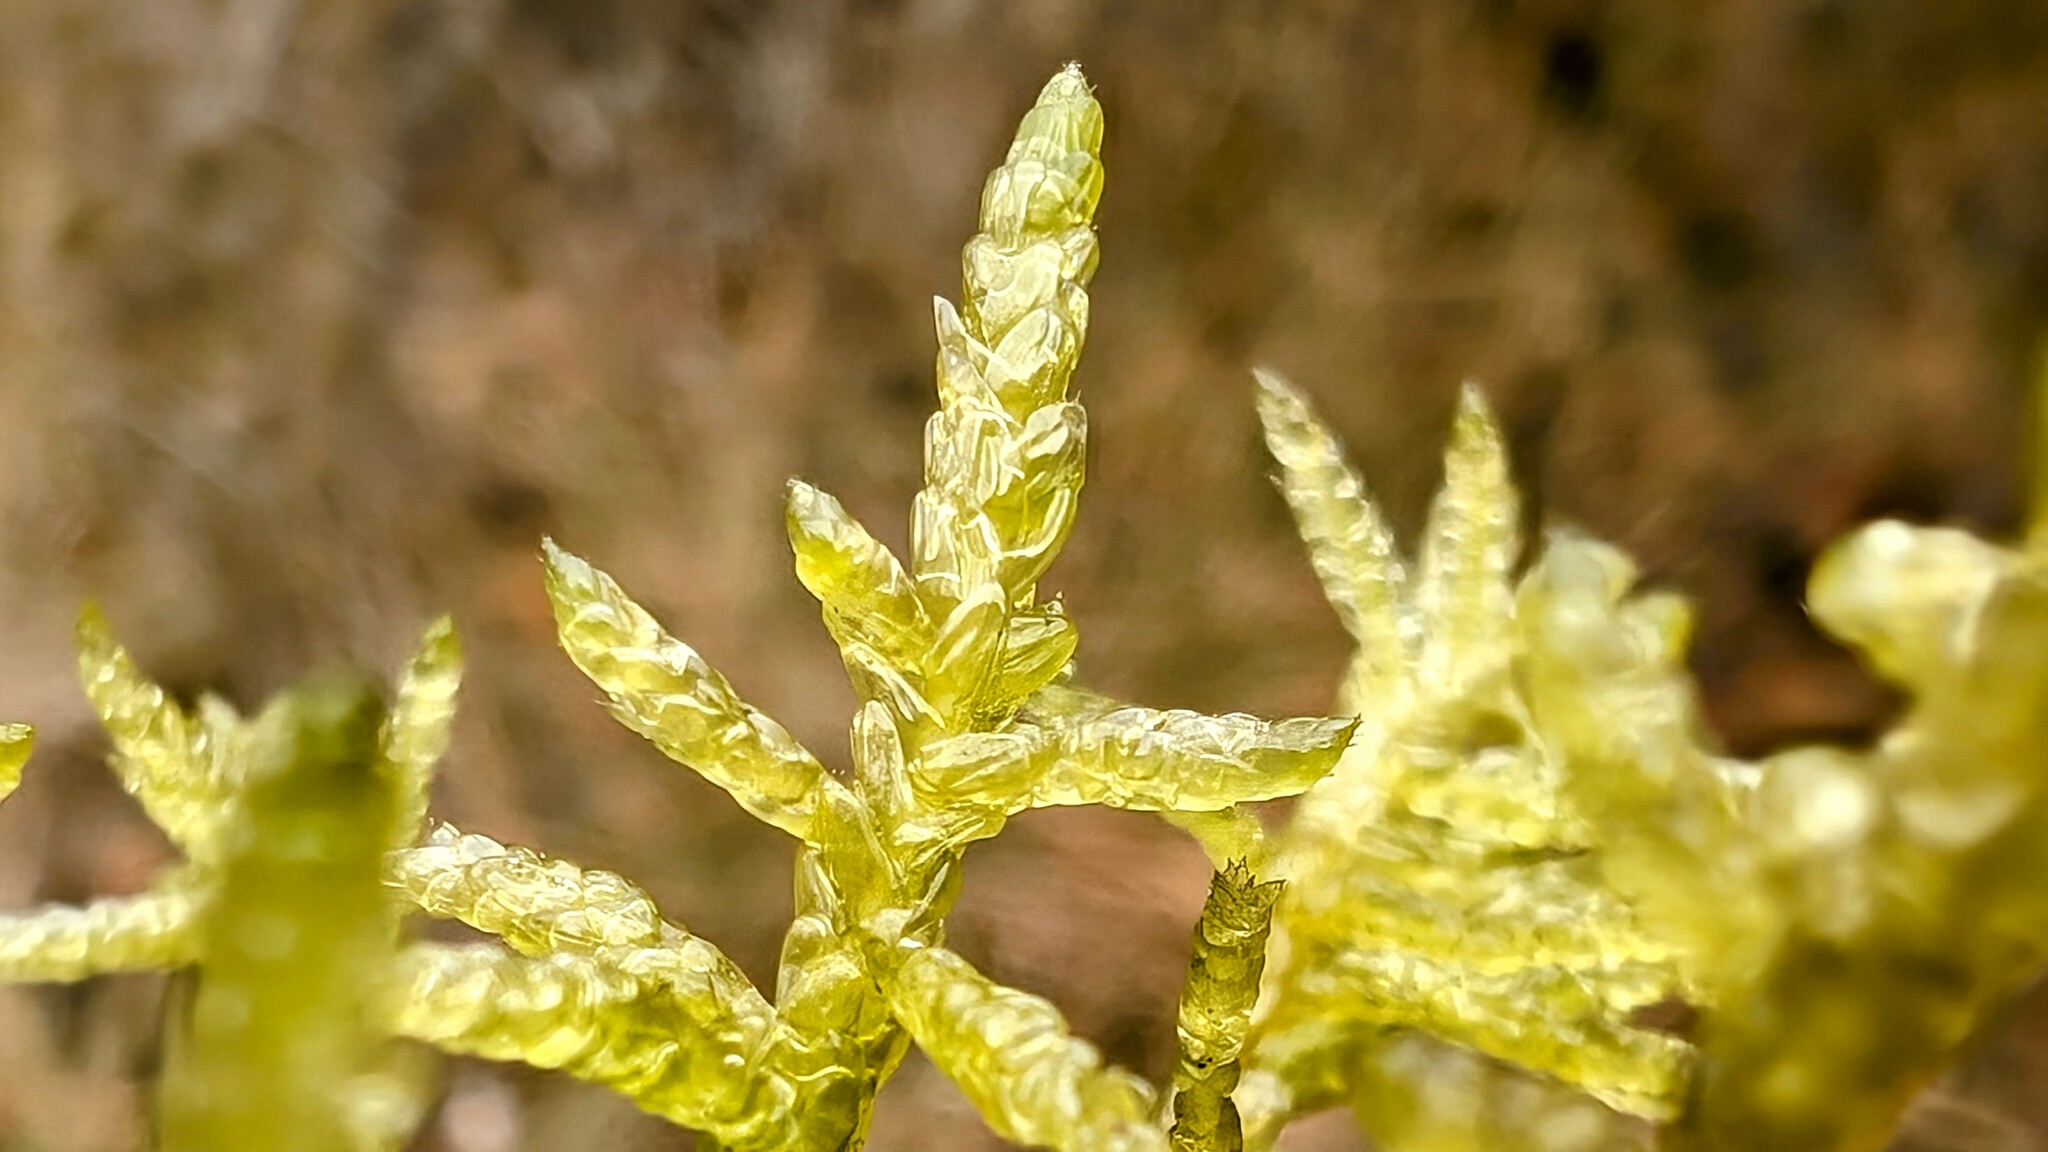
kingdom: Plantae
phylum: Bryophyta
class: Bryopsida
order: Hypnales
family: Brachytheciaceae
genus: Pseudoscleropodium
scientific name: Pseudoscleropodium purum
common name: Neat feather-moss
